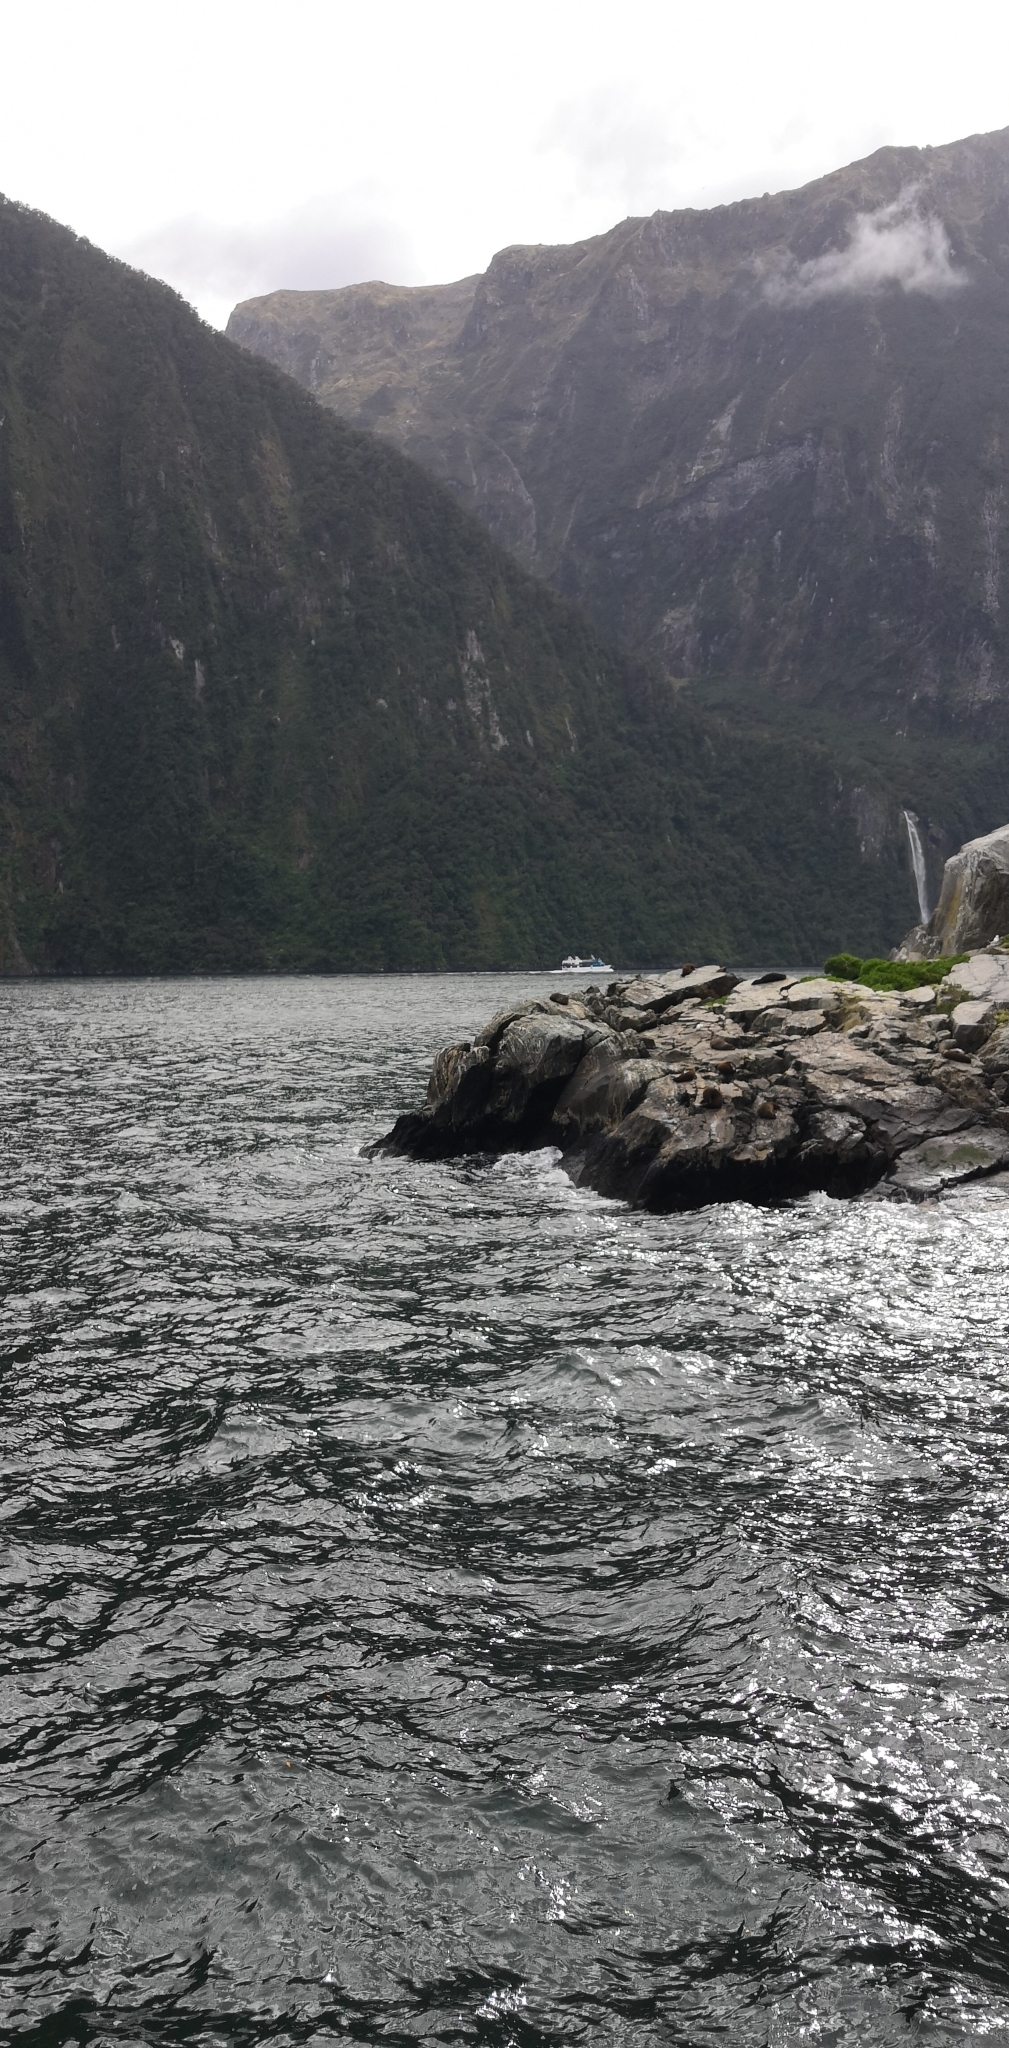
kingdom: Animalia
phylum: Chordata
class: Mammalia
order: Carnivora
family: Otariidae
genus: Arctocephalus
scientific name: Arctocephalus forsteri
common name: New zealand fur seal
